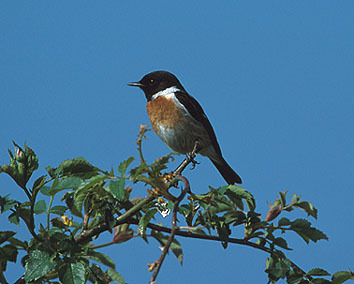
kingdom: Animalia
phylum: Chordata
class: Aves
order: Passeriformes
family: Muscicapidae
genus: Saxicola
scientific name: Saxicola torquatus
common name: African stonechat
